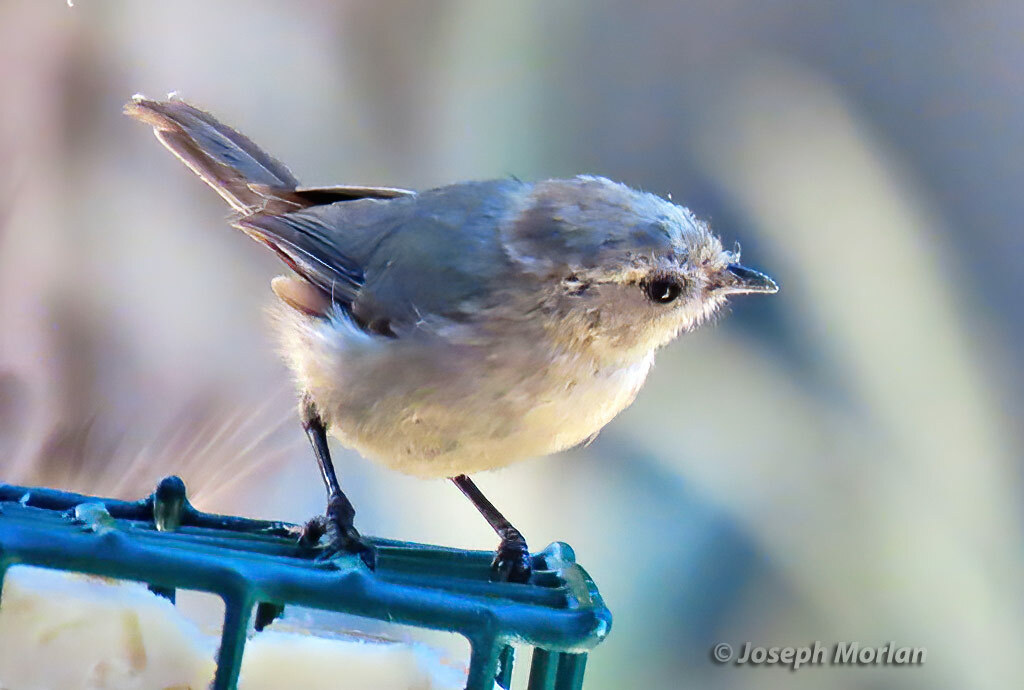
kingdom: Animalia
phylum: Chordata
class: Aves
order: Passeriformes
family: Aegithalidae
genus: Psaltriparus
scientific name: Psaltriparus minimus
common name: American bushtit
